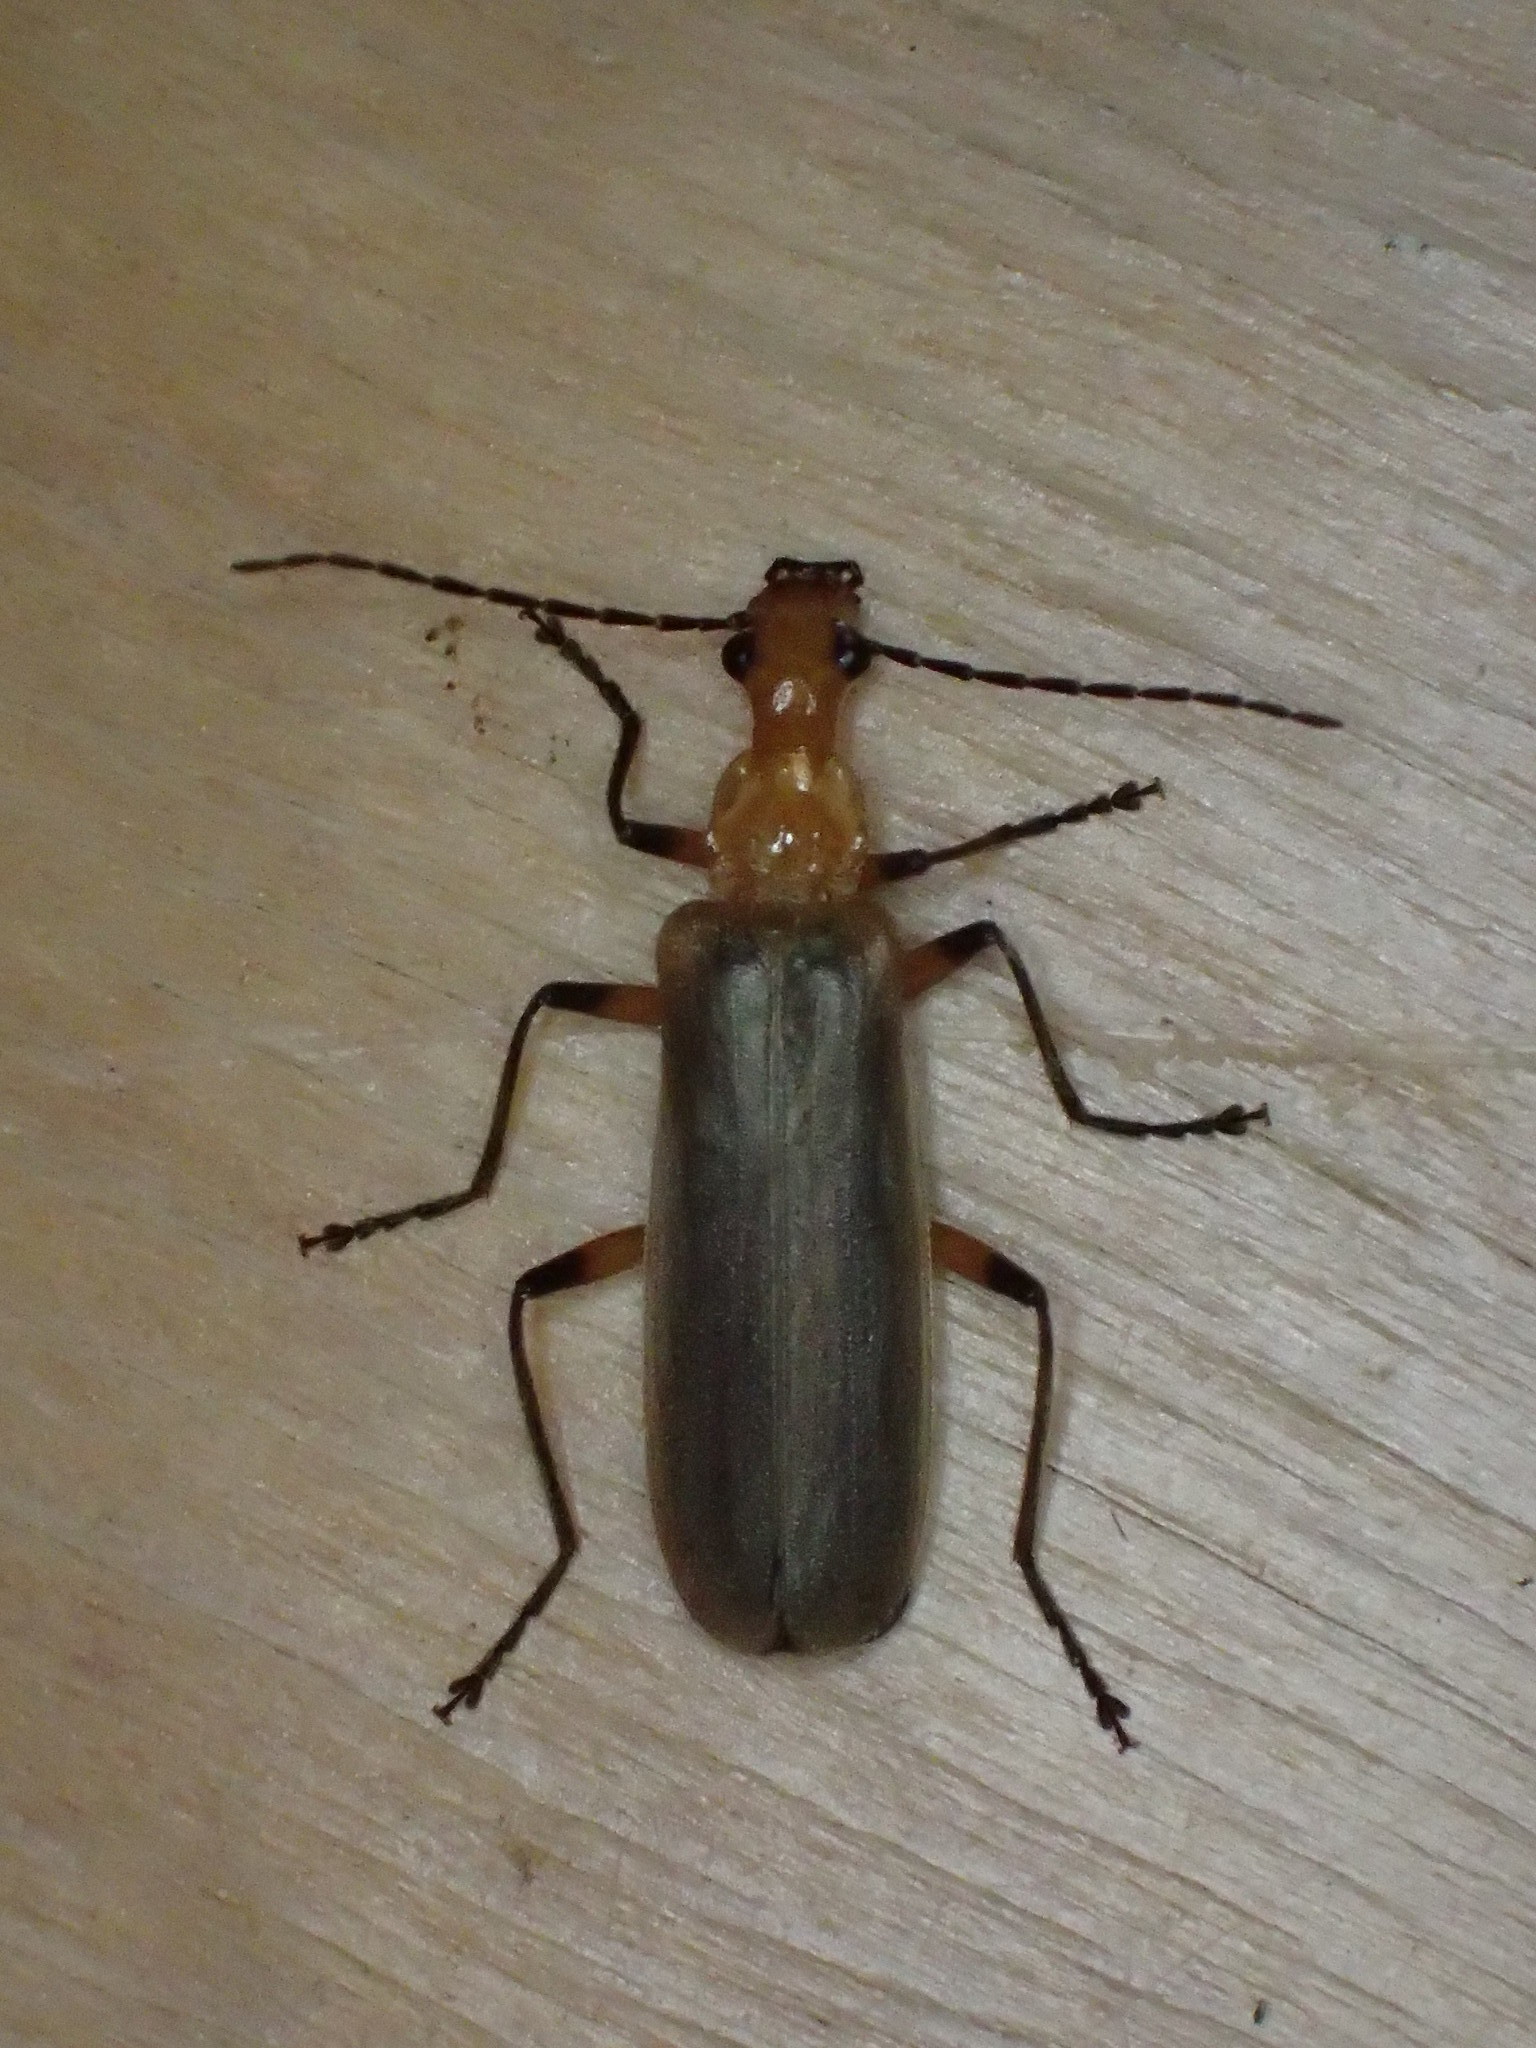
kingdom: Animalia
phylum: Arthropoda
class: Insecta
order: Coleoptera
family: Cantharidae
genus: Podabrus
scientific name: Podabrus protensus
